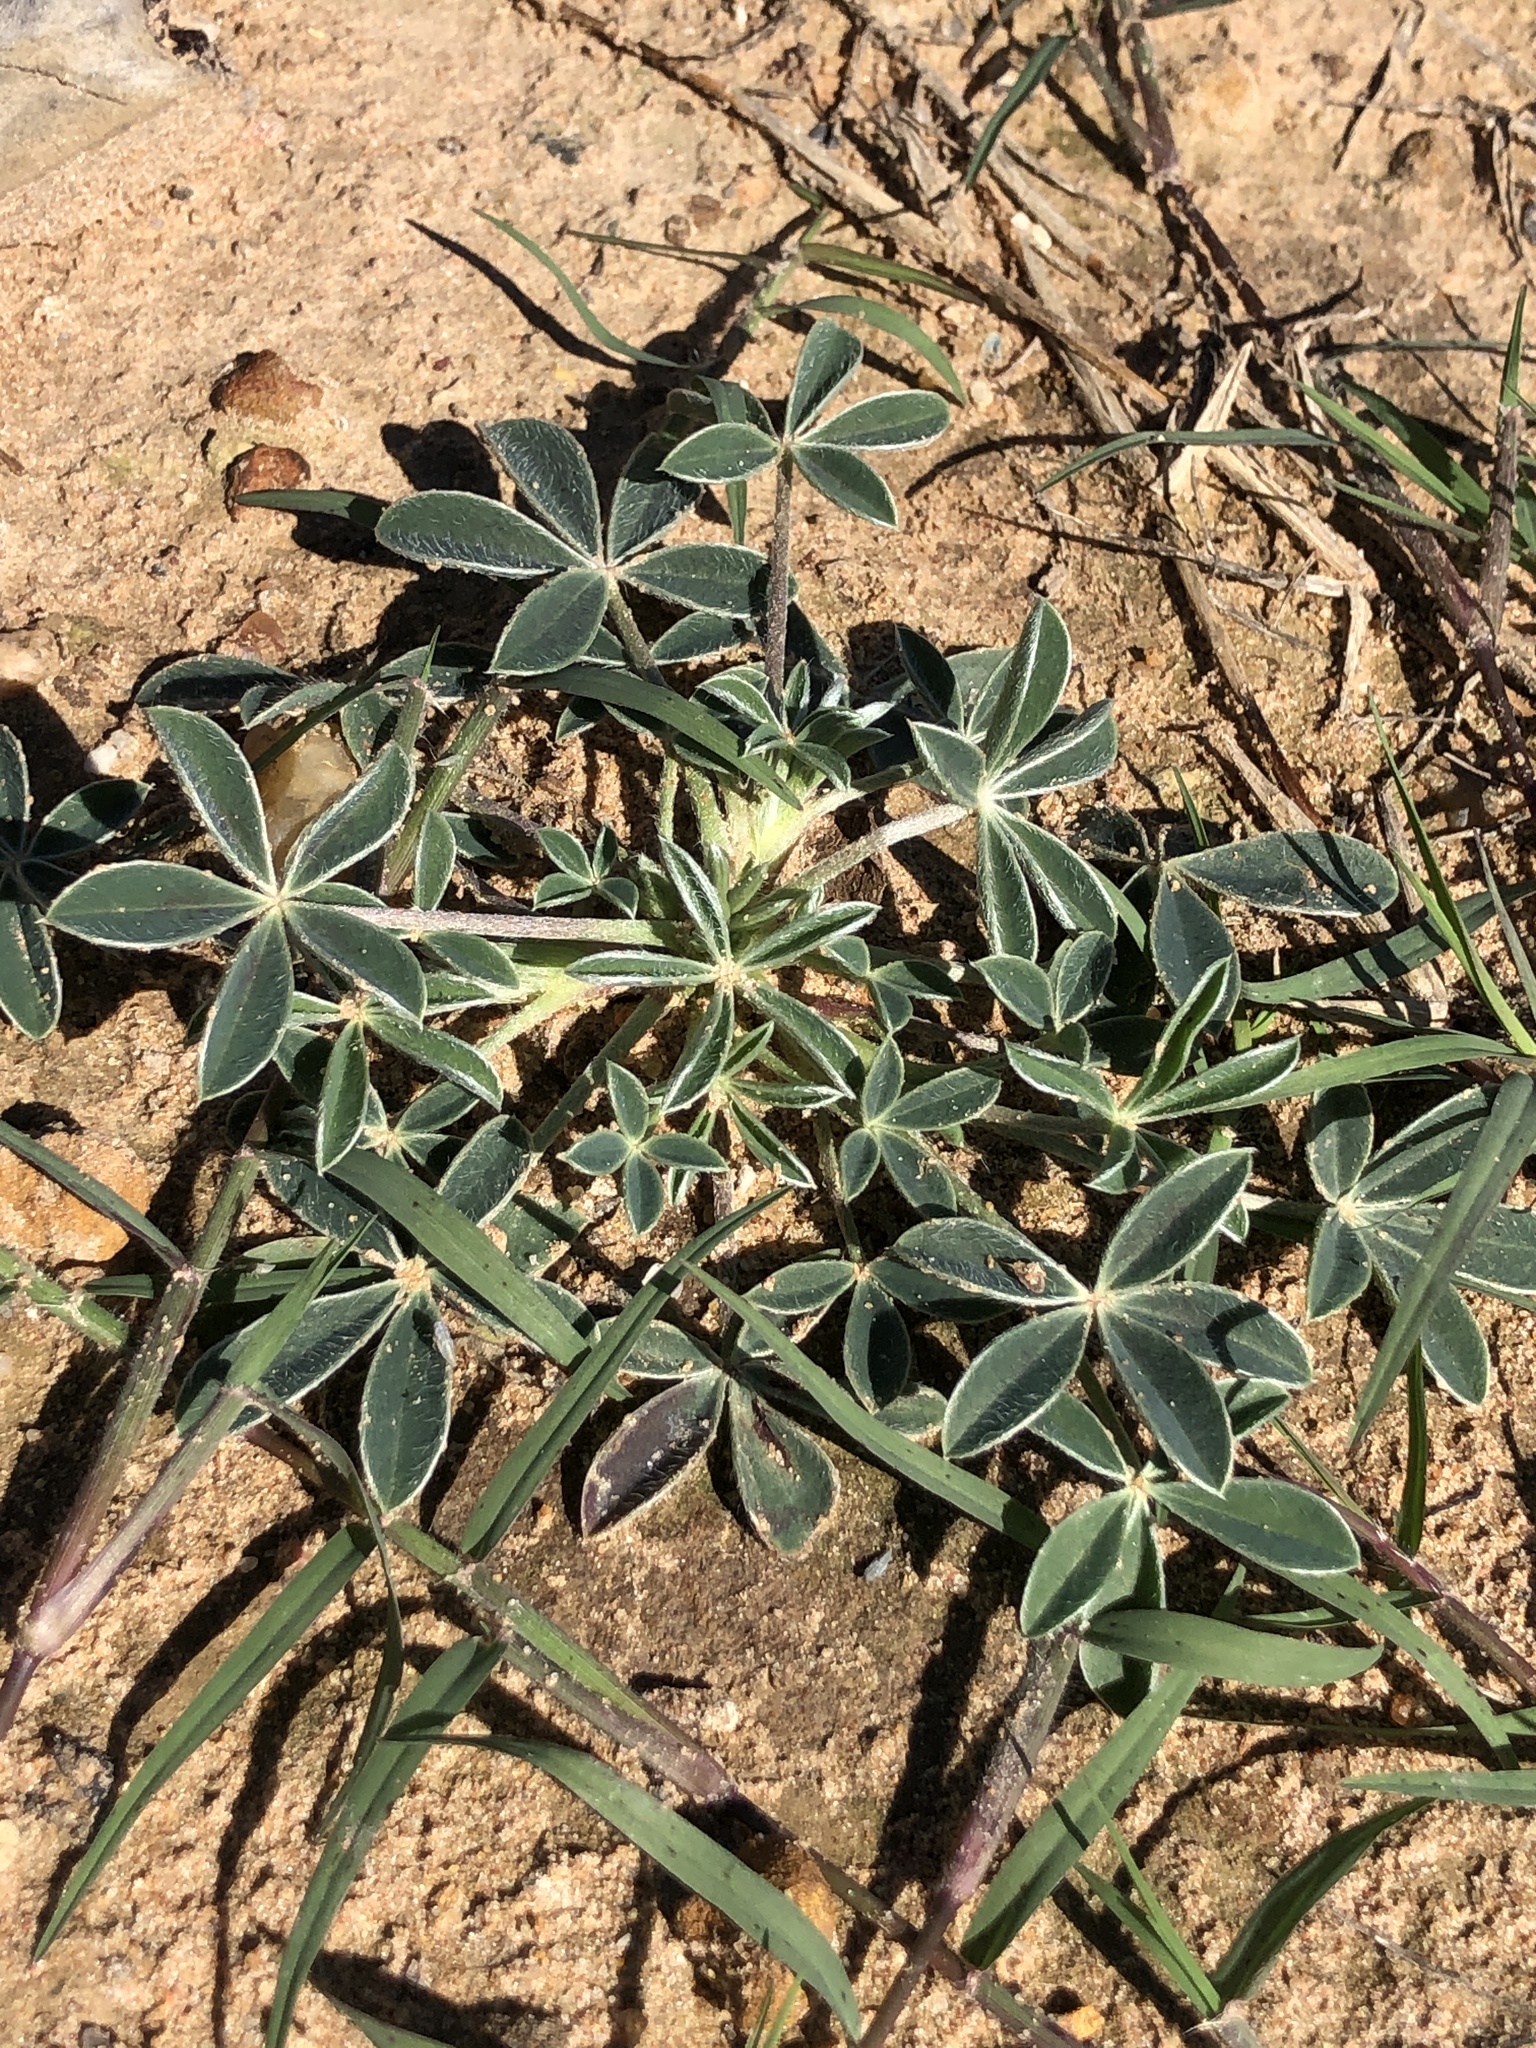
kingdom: Plantae
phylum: Tracheophyta
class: Magnoliopsida
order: Fabales
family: Fabaceae
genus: Lupinus
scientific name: Lupinus texensis
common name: Texas bluebonnet
